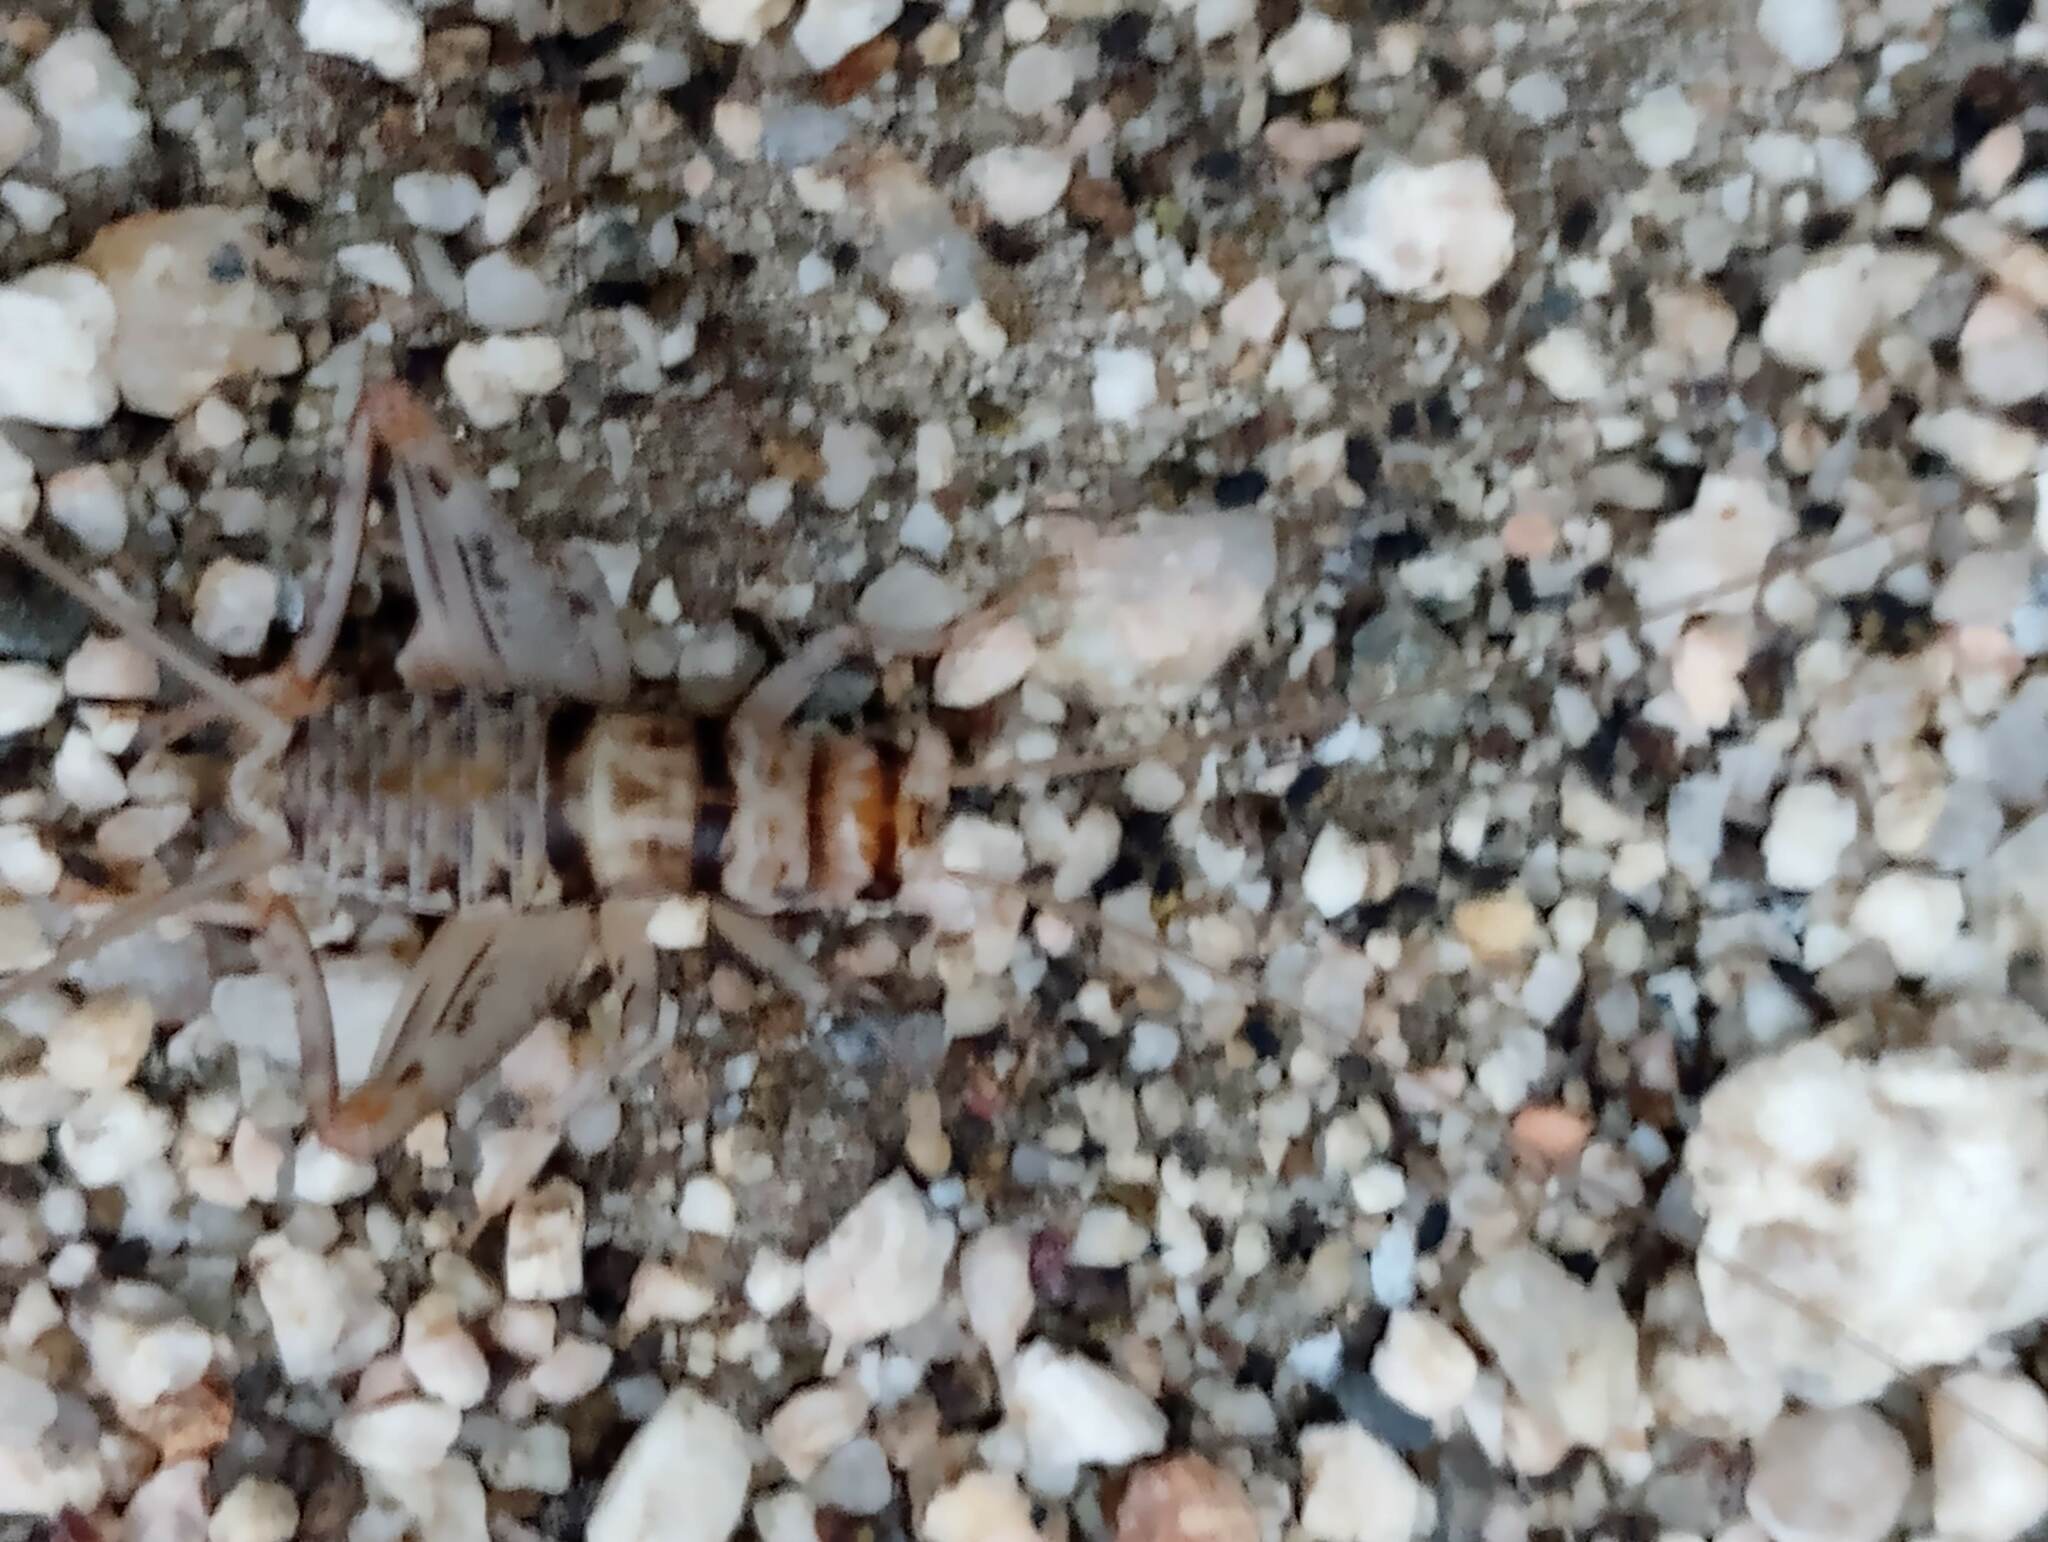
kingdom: Animalia
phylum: Arthropoda
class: Insecta
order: Orthoptera
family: Gryllidae
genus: Gryllodes
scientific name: Gryllodes sigillatus
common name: Tropical house cricket
